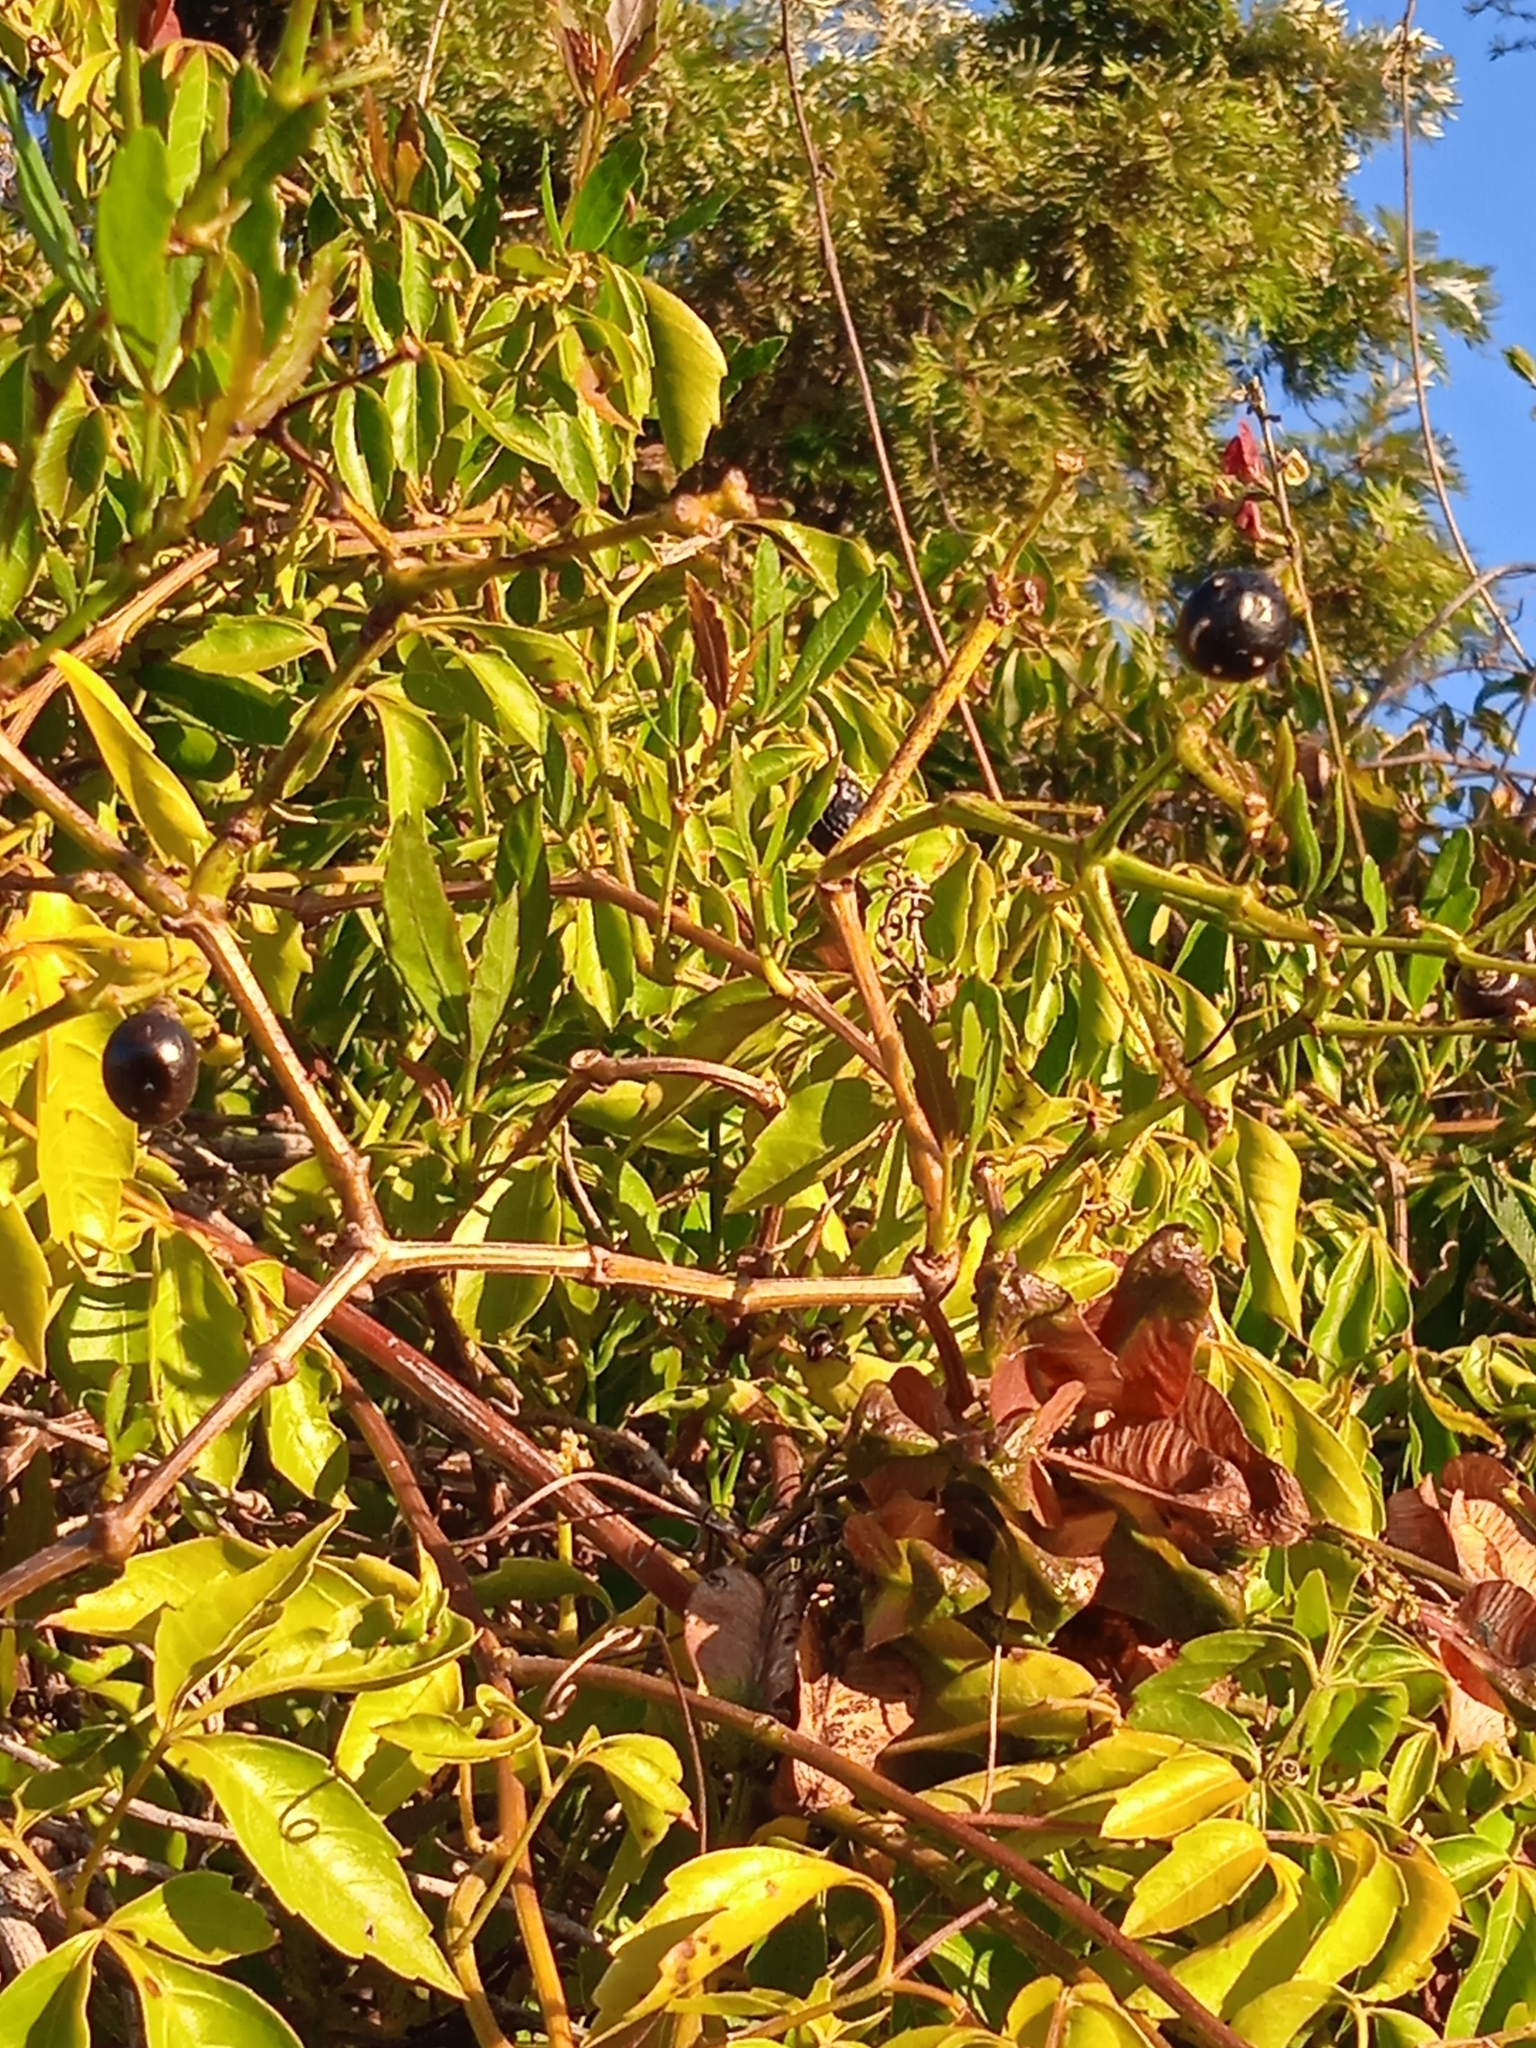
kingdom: Plantae
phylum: Tracheophyta
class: Magnoliopsida
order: Sapindales
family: Sapindaceae
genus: Serjania
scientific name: Serjania meridionalis
